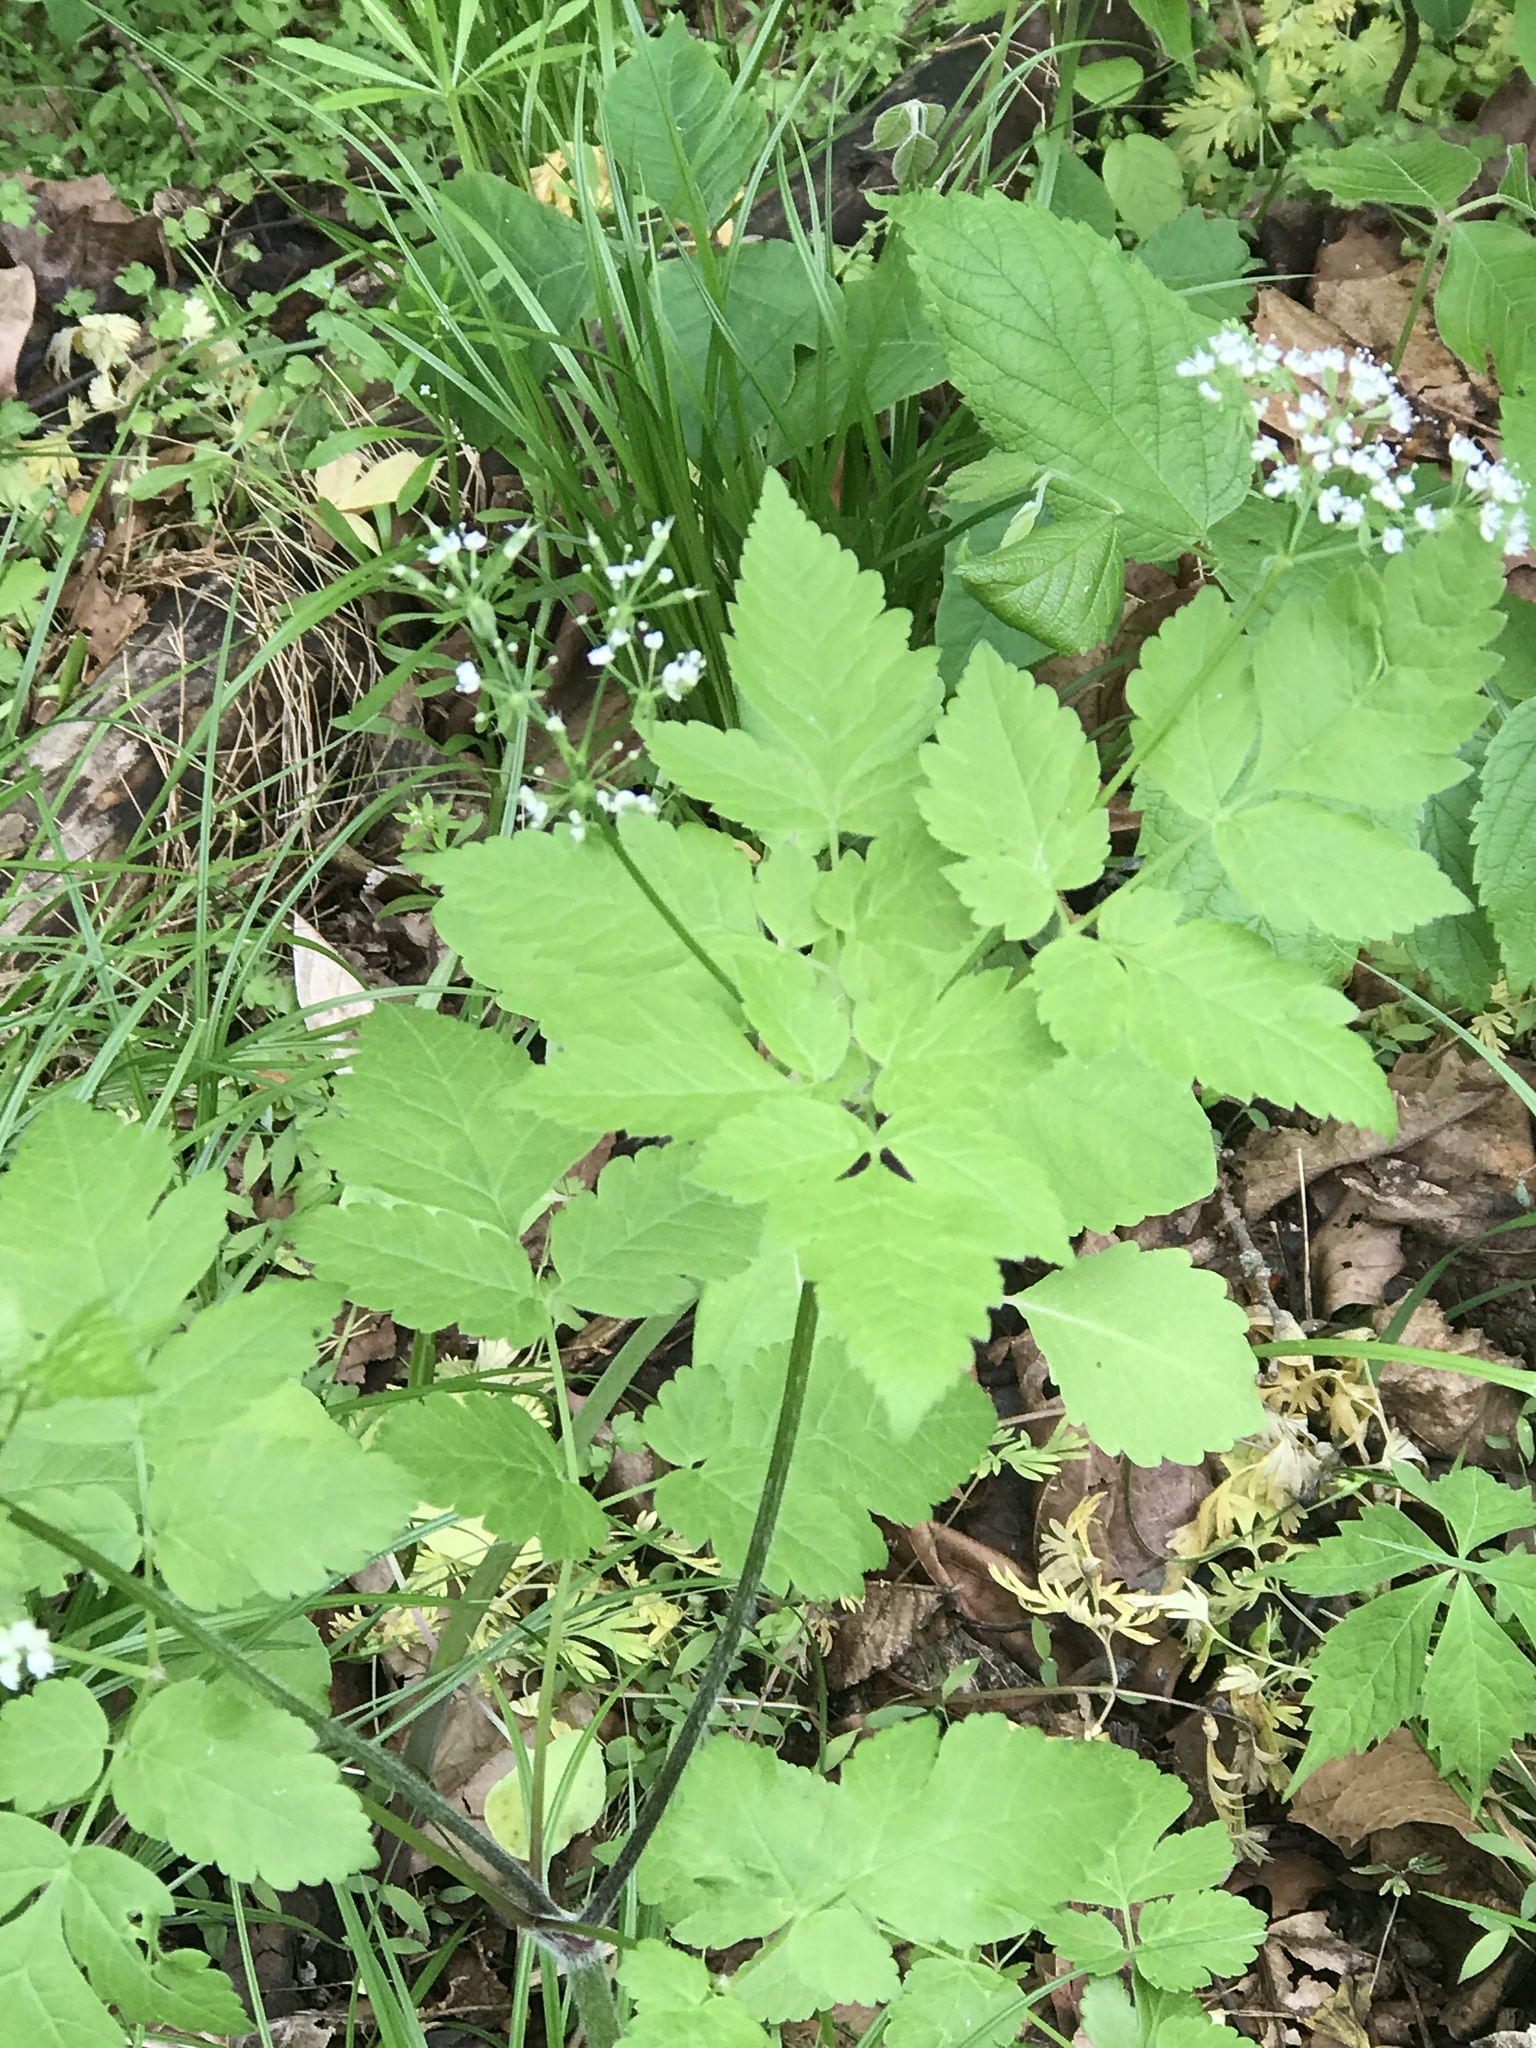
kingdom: Plantae
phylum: Tracheophyta
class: Magnoliopsida
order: Apiales
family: Apiaceae
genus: Osmorhiza
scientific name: Osmorhiza longistylis
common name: Smooth sweet cicely
